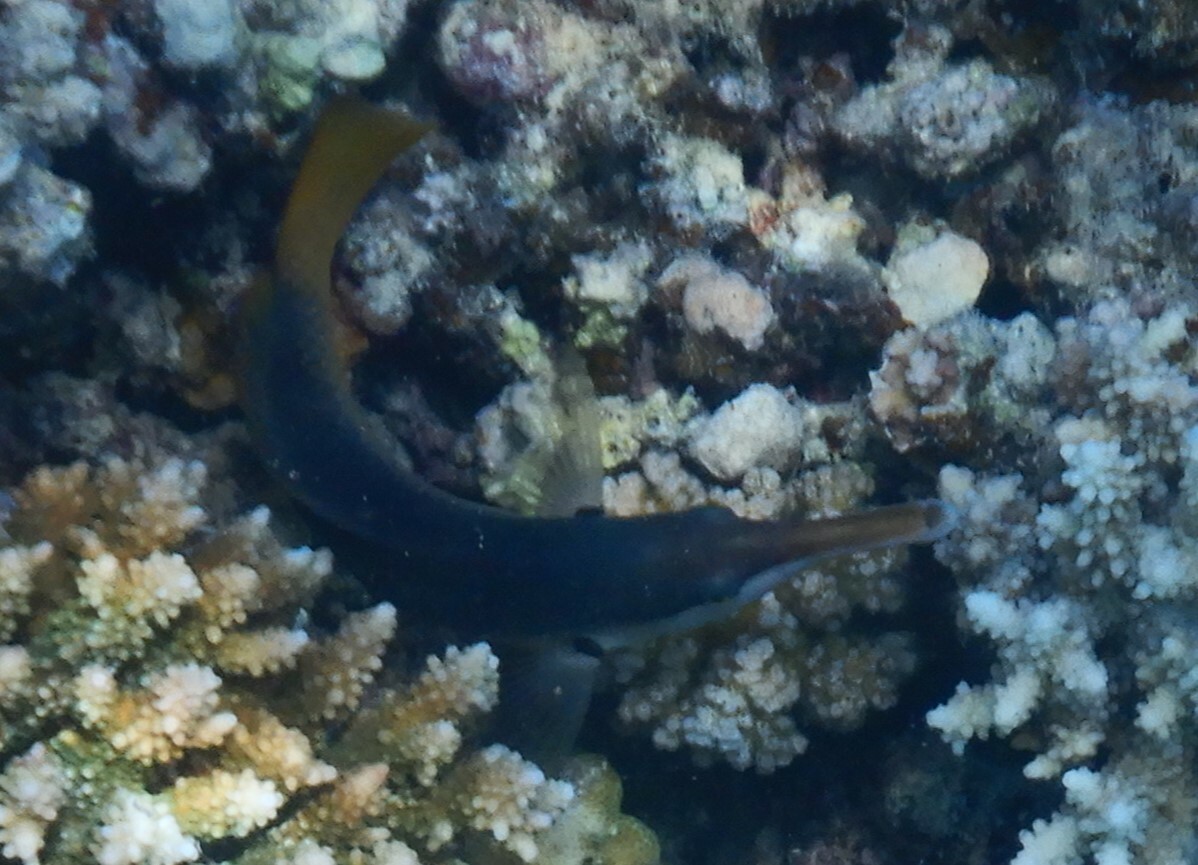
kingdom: Animalia
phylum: Chordata
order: Perciformes
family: Labridae
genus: Gomphosus
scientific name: Gomphosus klunzingeri
